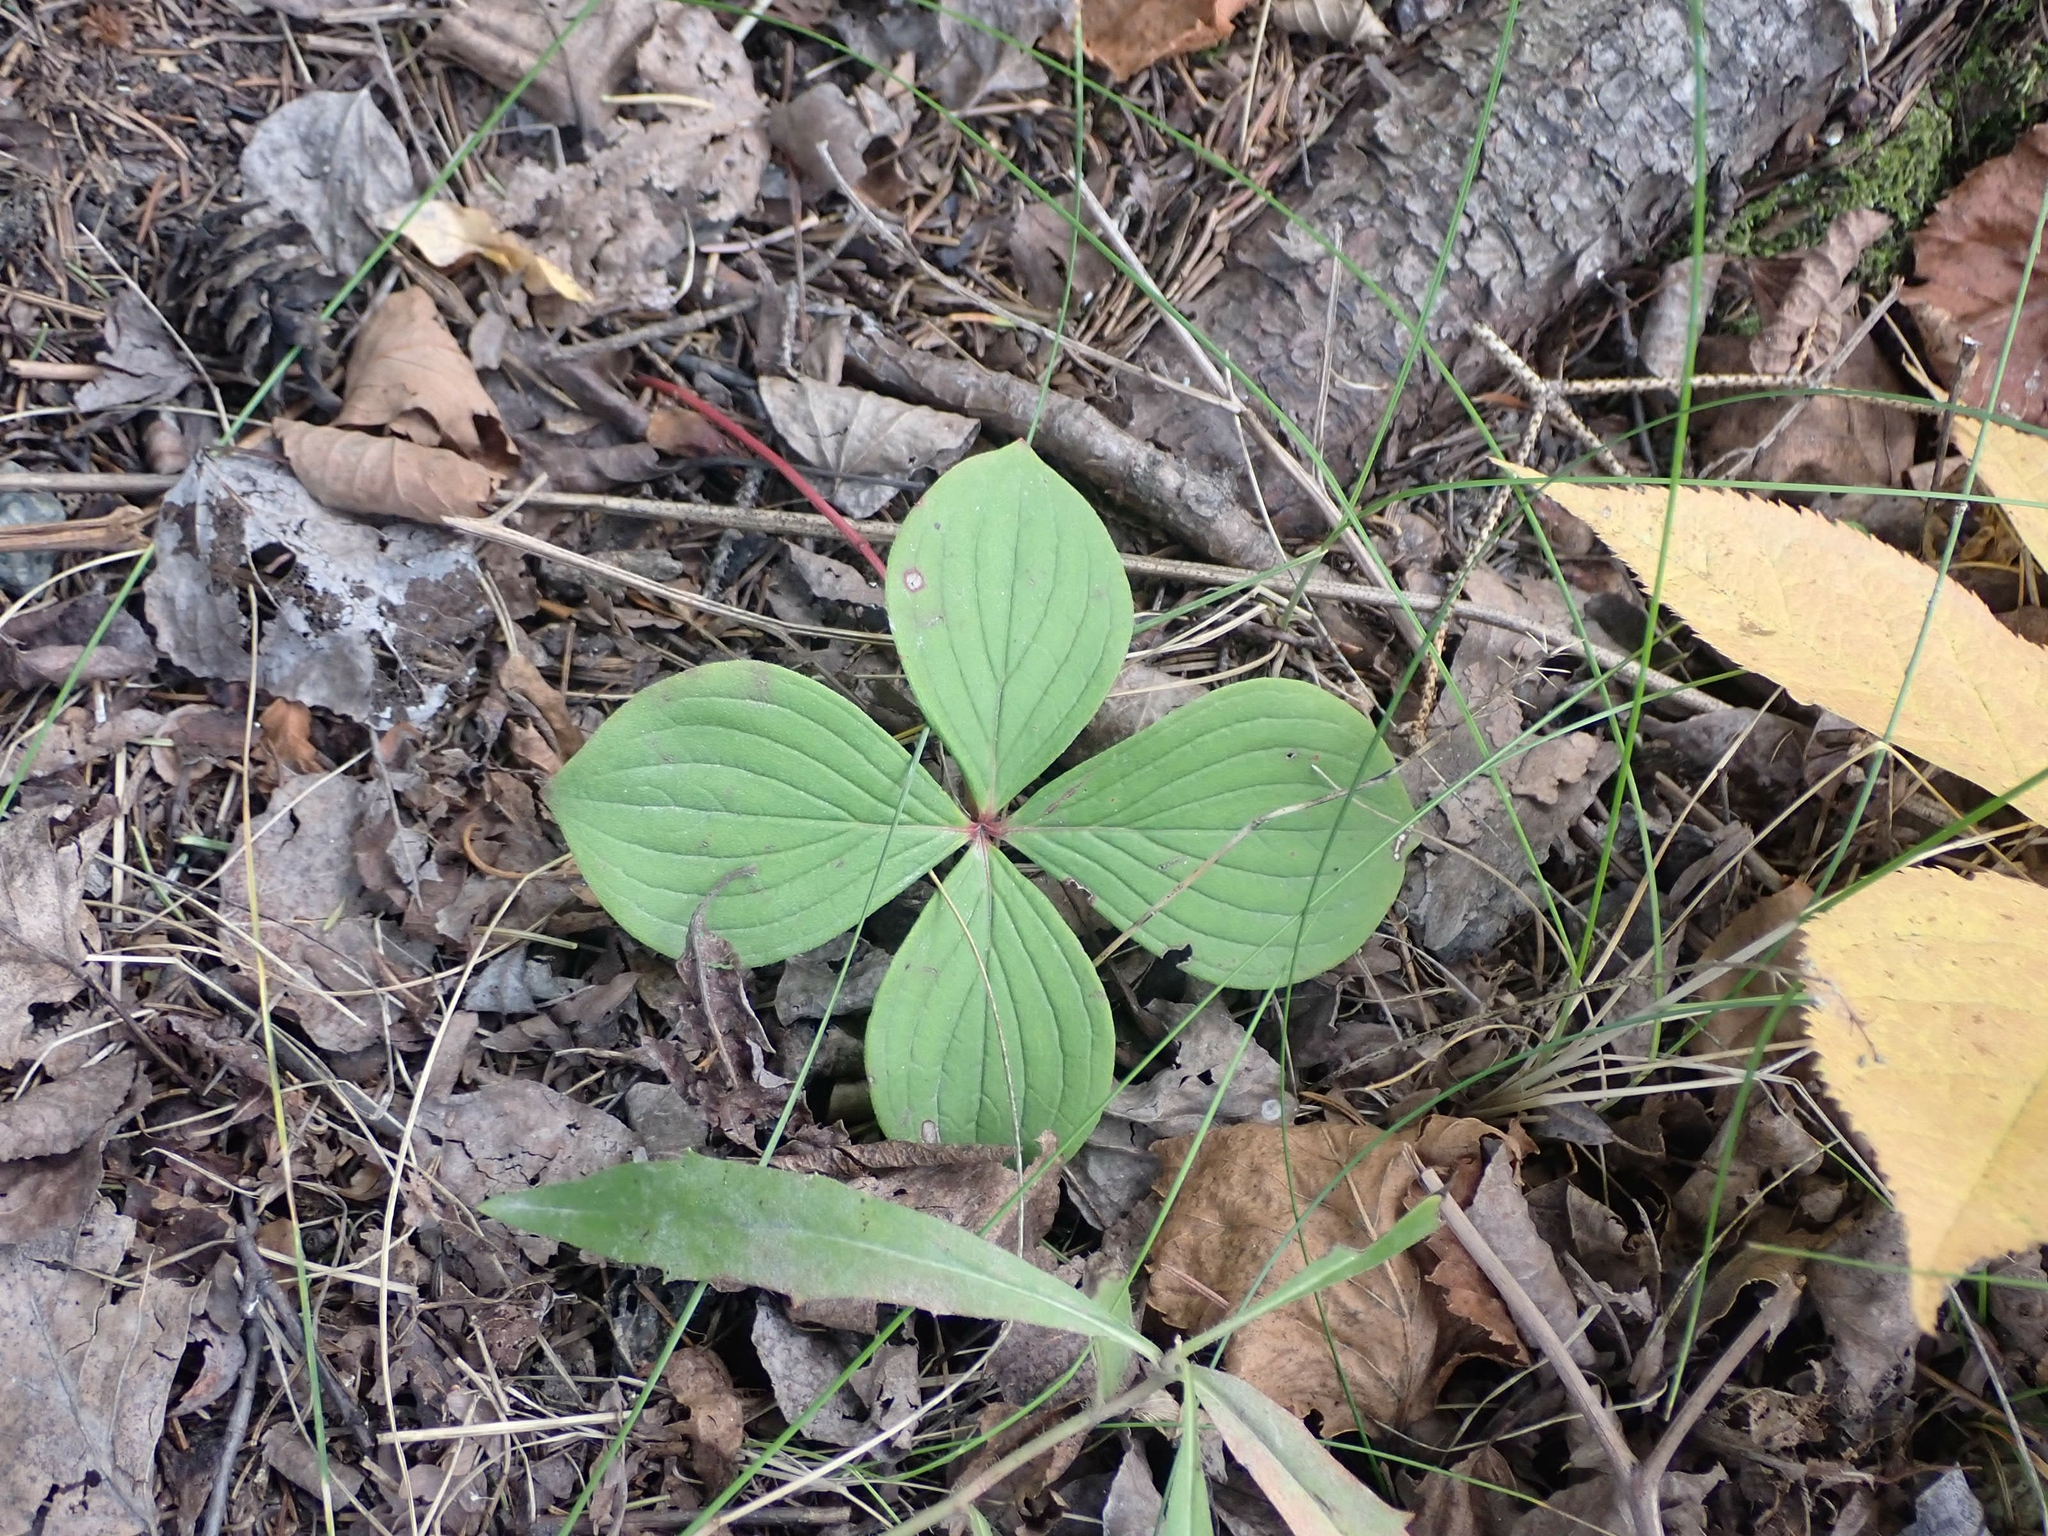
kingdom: Plantae
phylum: Tracheophyta
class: Magnoliopsida
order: Cornales
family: Cornaceae
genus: Cornus
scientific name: Cornus canadensis
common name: Creeping dogwood
